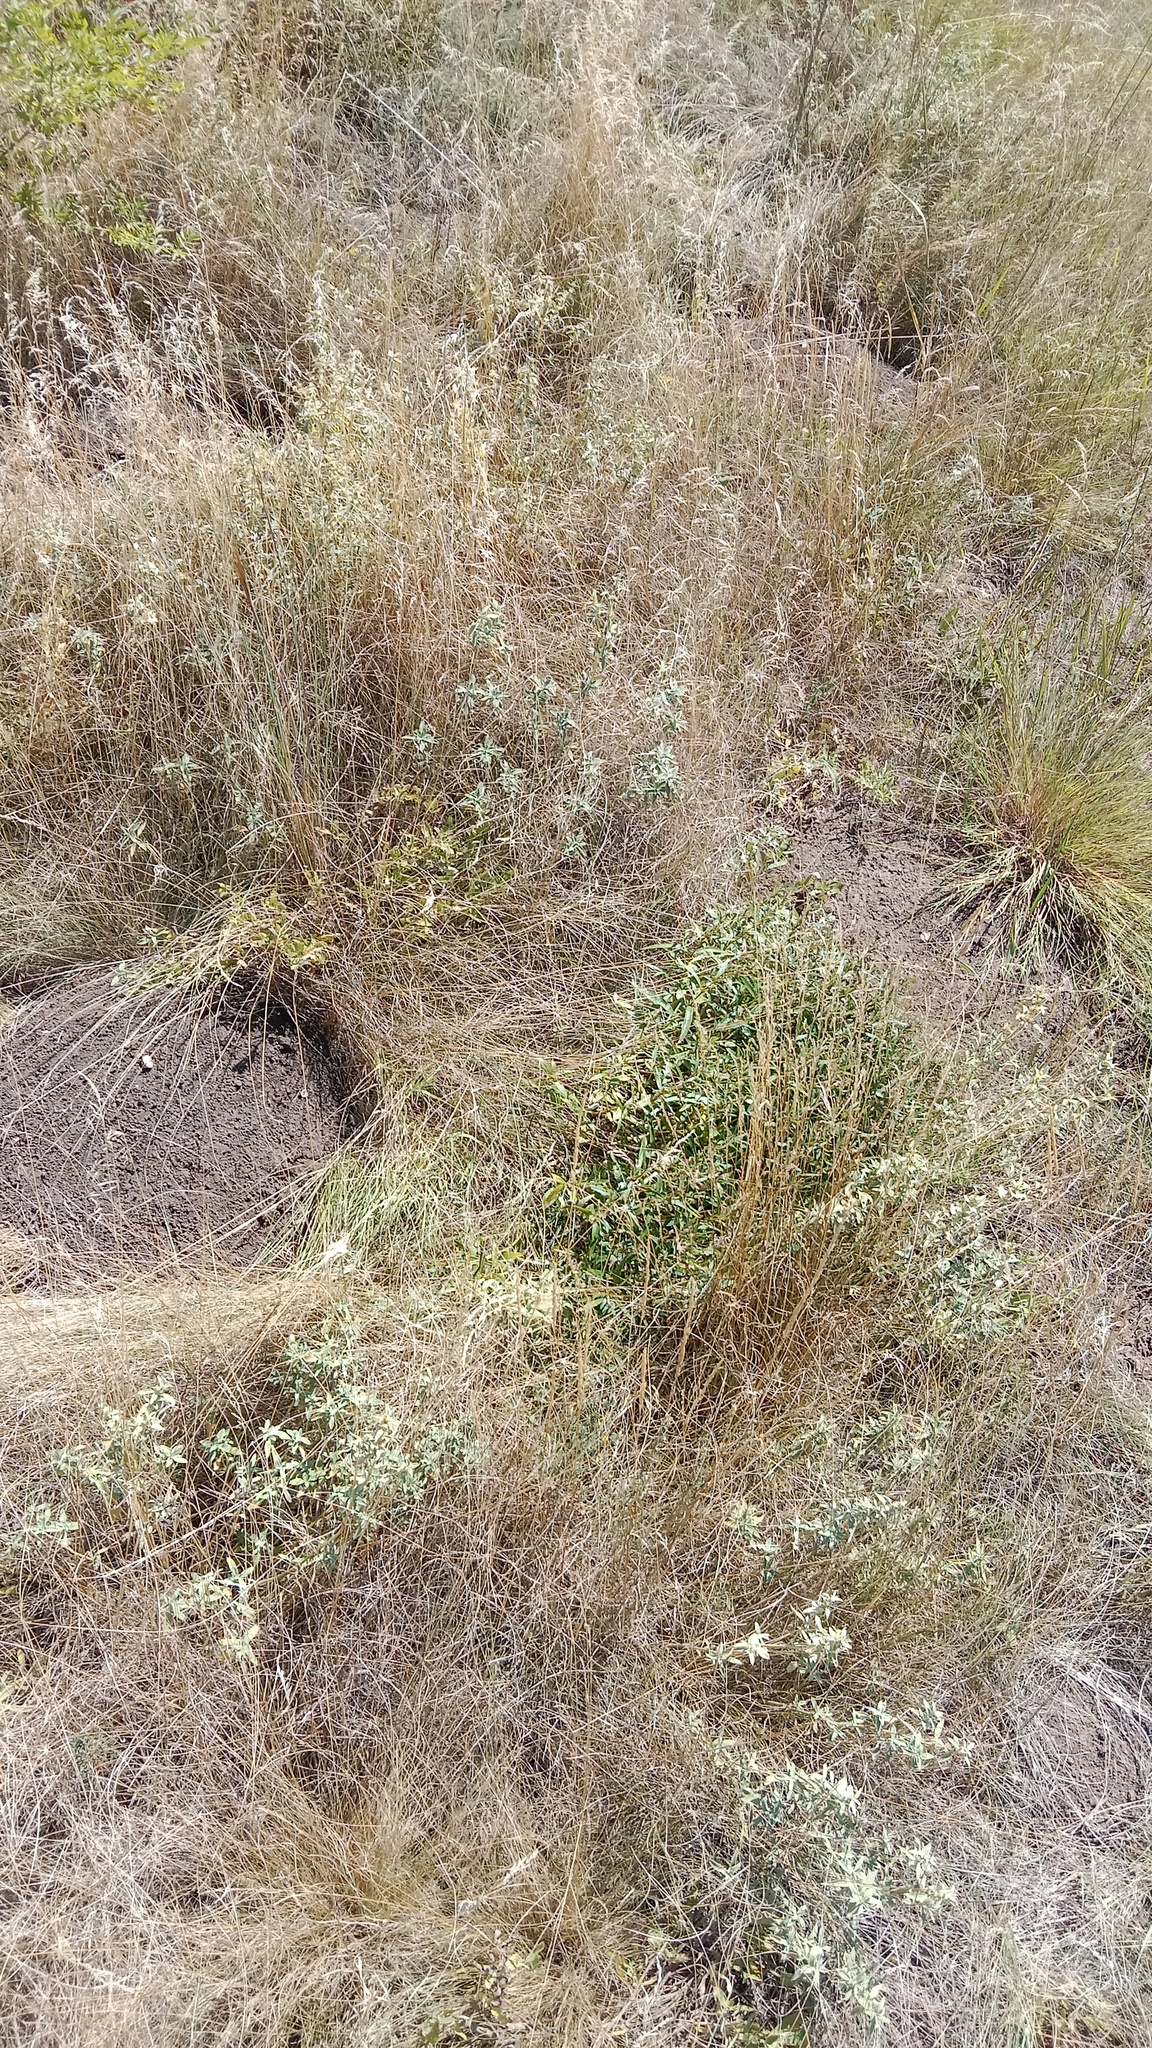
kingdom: Animalia
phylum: Chordata
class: Mammalia
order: Rodentia
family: Spalacidae
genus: Spalax
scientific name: Spalax zemni
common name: Podolsk blind mole rat
